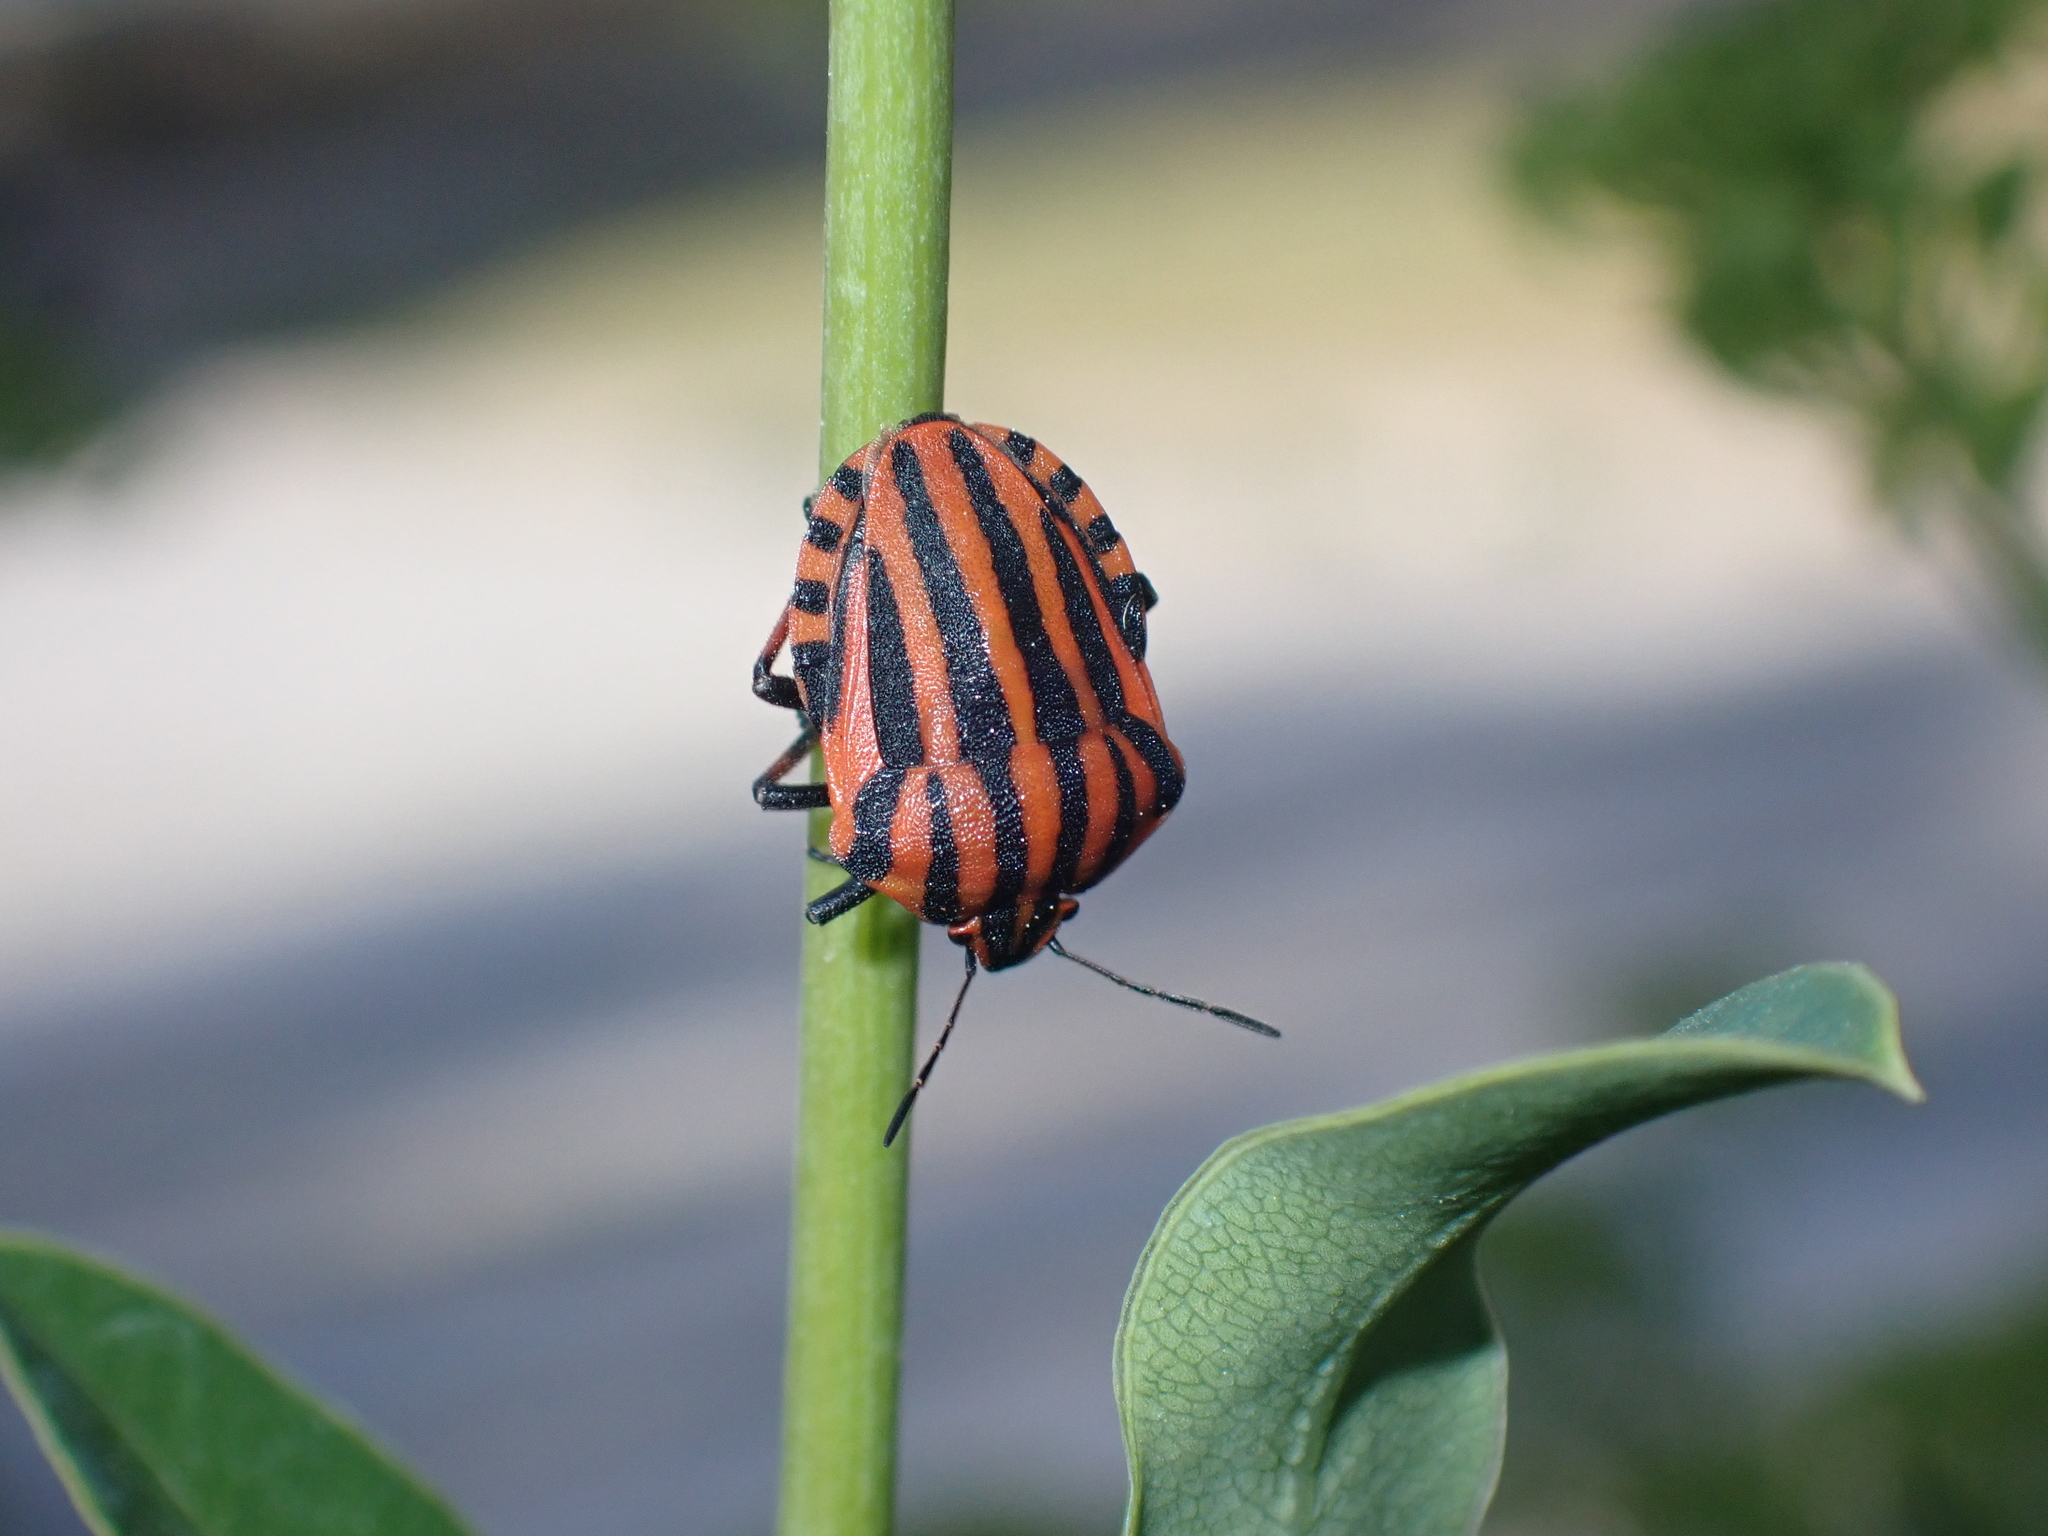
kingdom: Animalia
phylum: Arthropoda
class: Insecta
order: Hemiptera
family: Pentatomidae
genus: Graphosoma
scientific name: Graphosoma italicum
